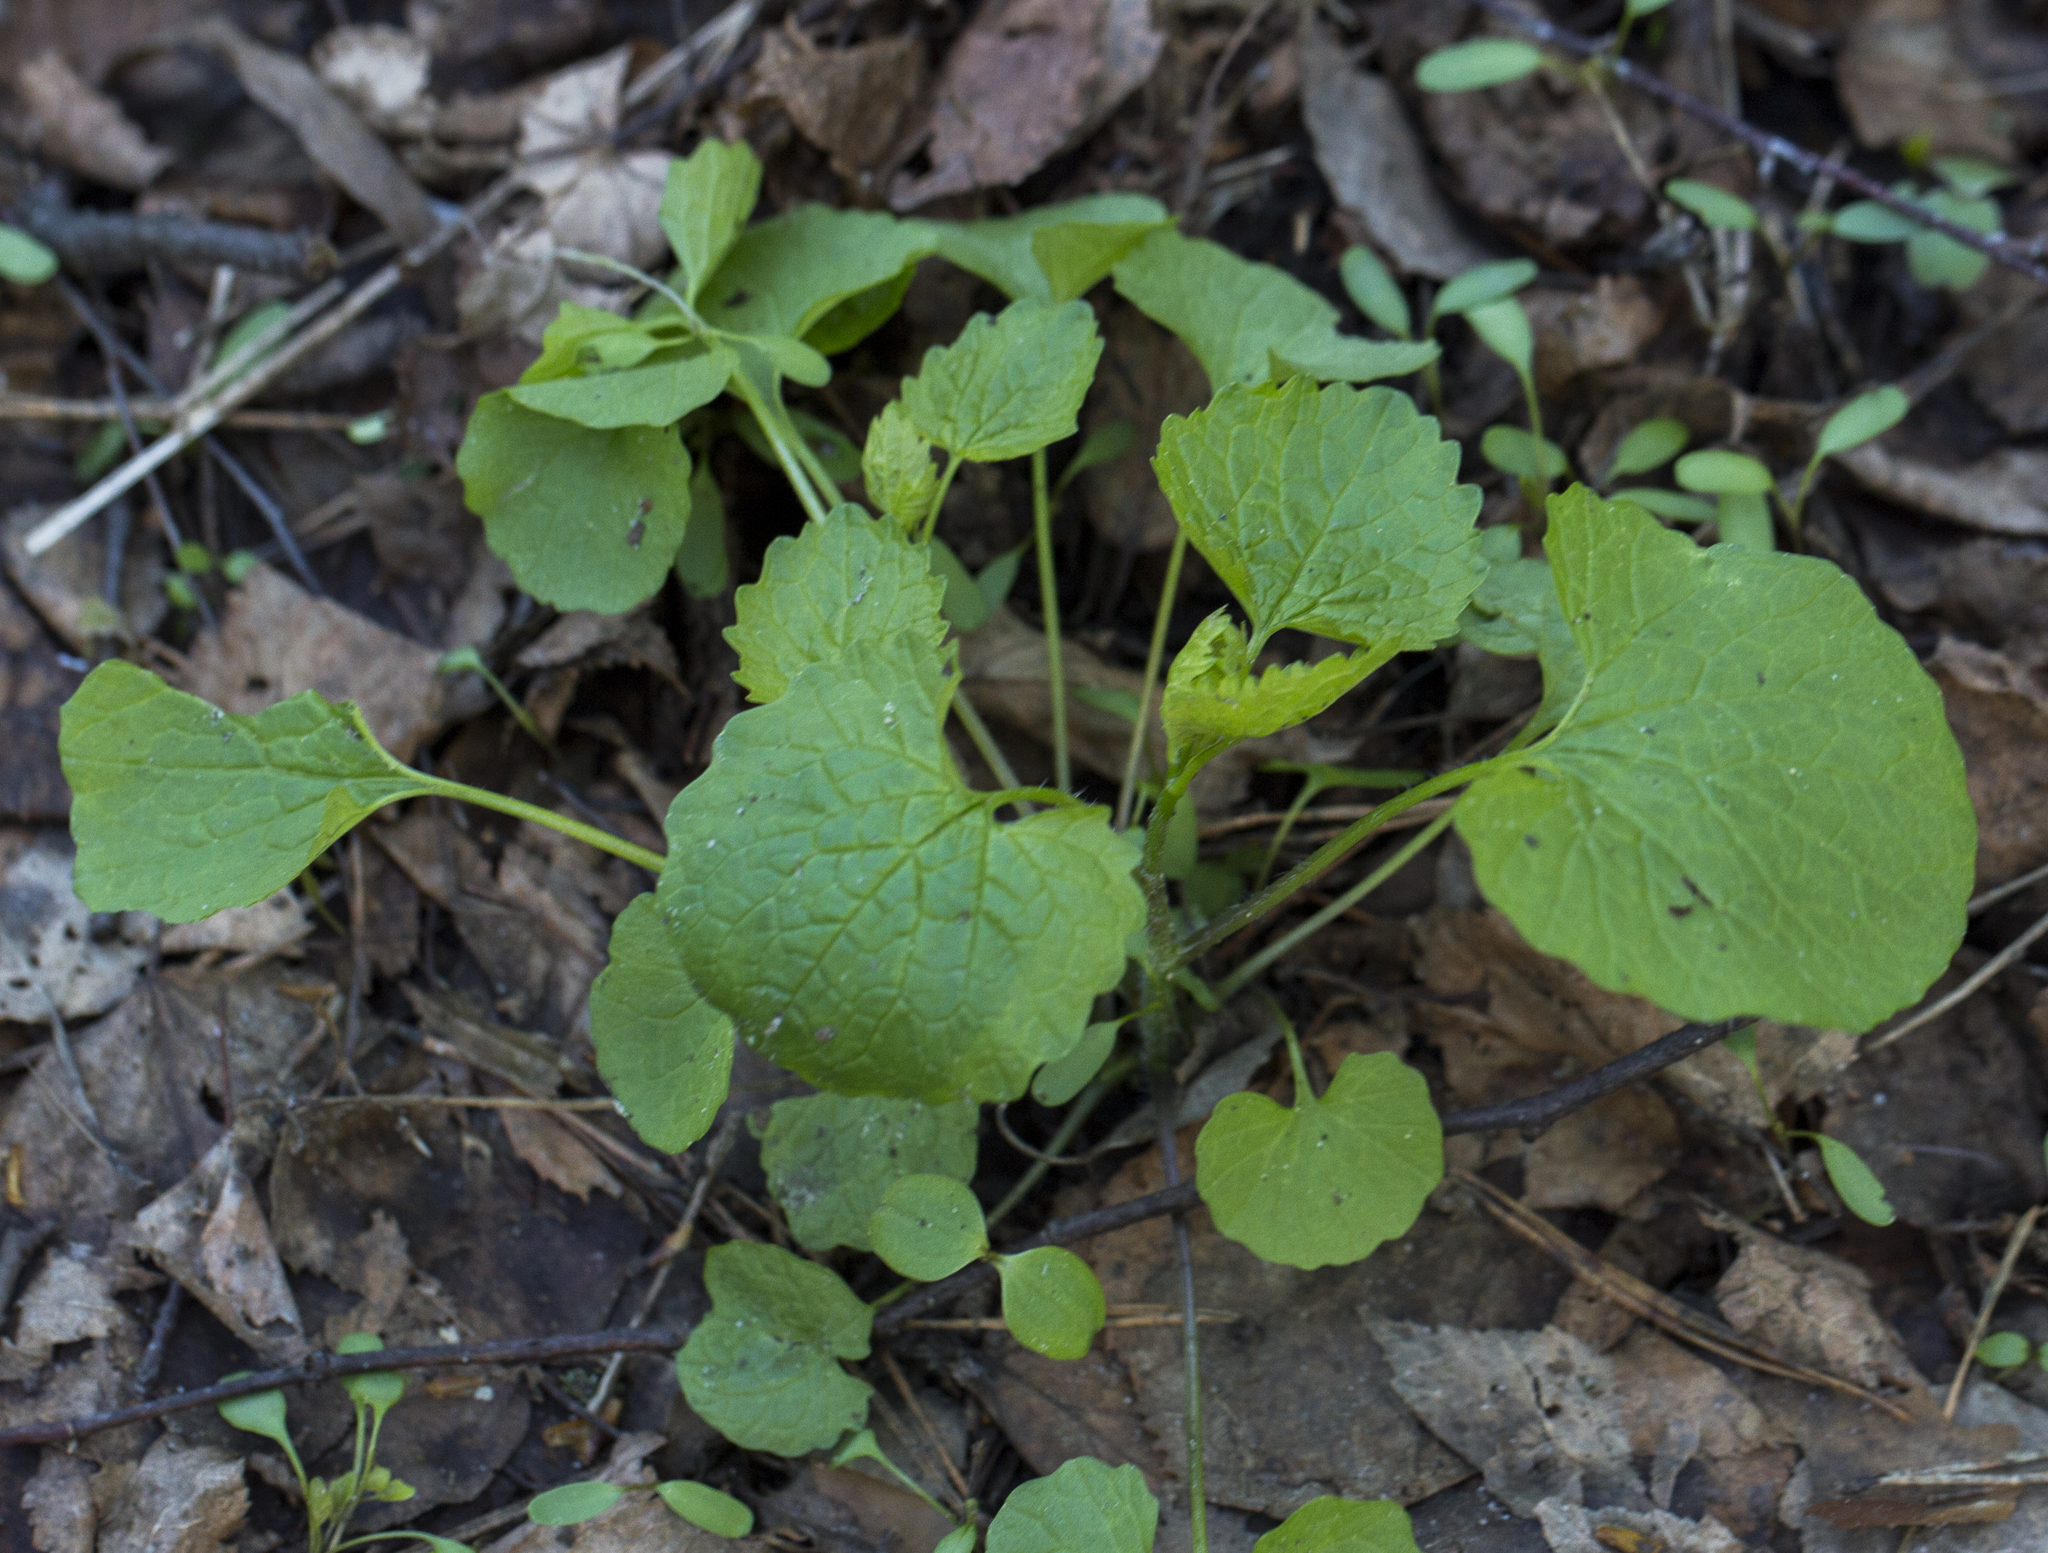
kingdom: Plantae
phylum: Tracheophyta
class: Magnoliopsida
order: Brassicales
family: Brassicaceae
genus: Alliaria
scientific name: Alliaria petiolata
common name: Garlic mustard
